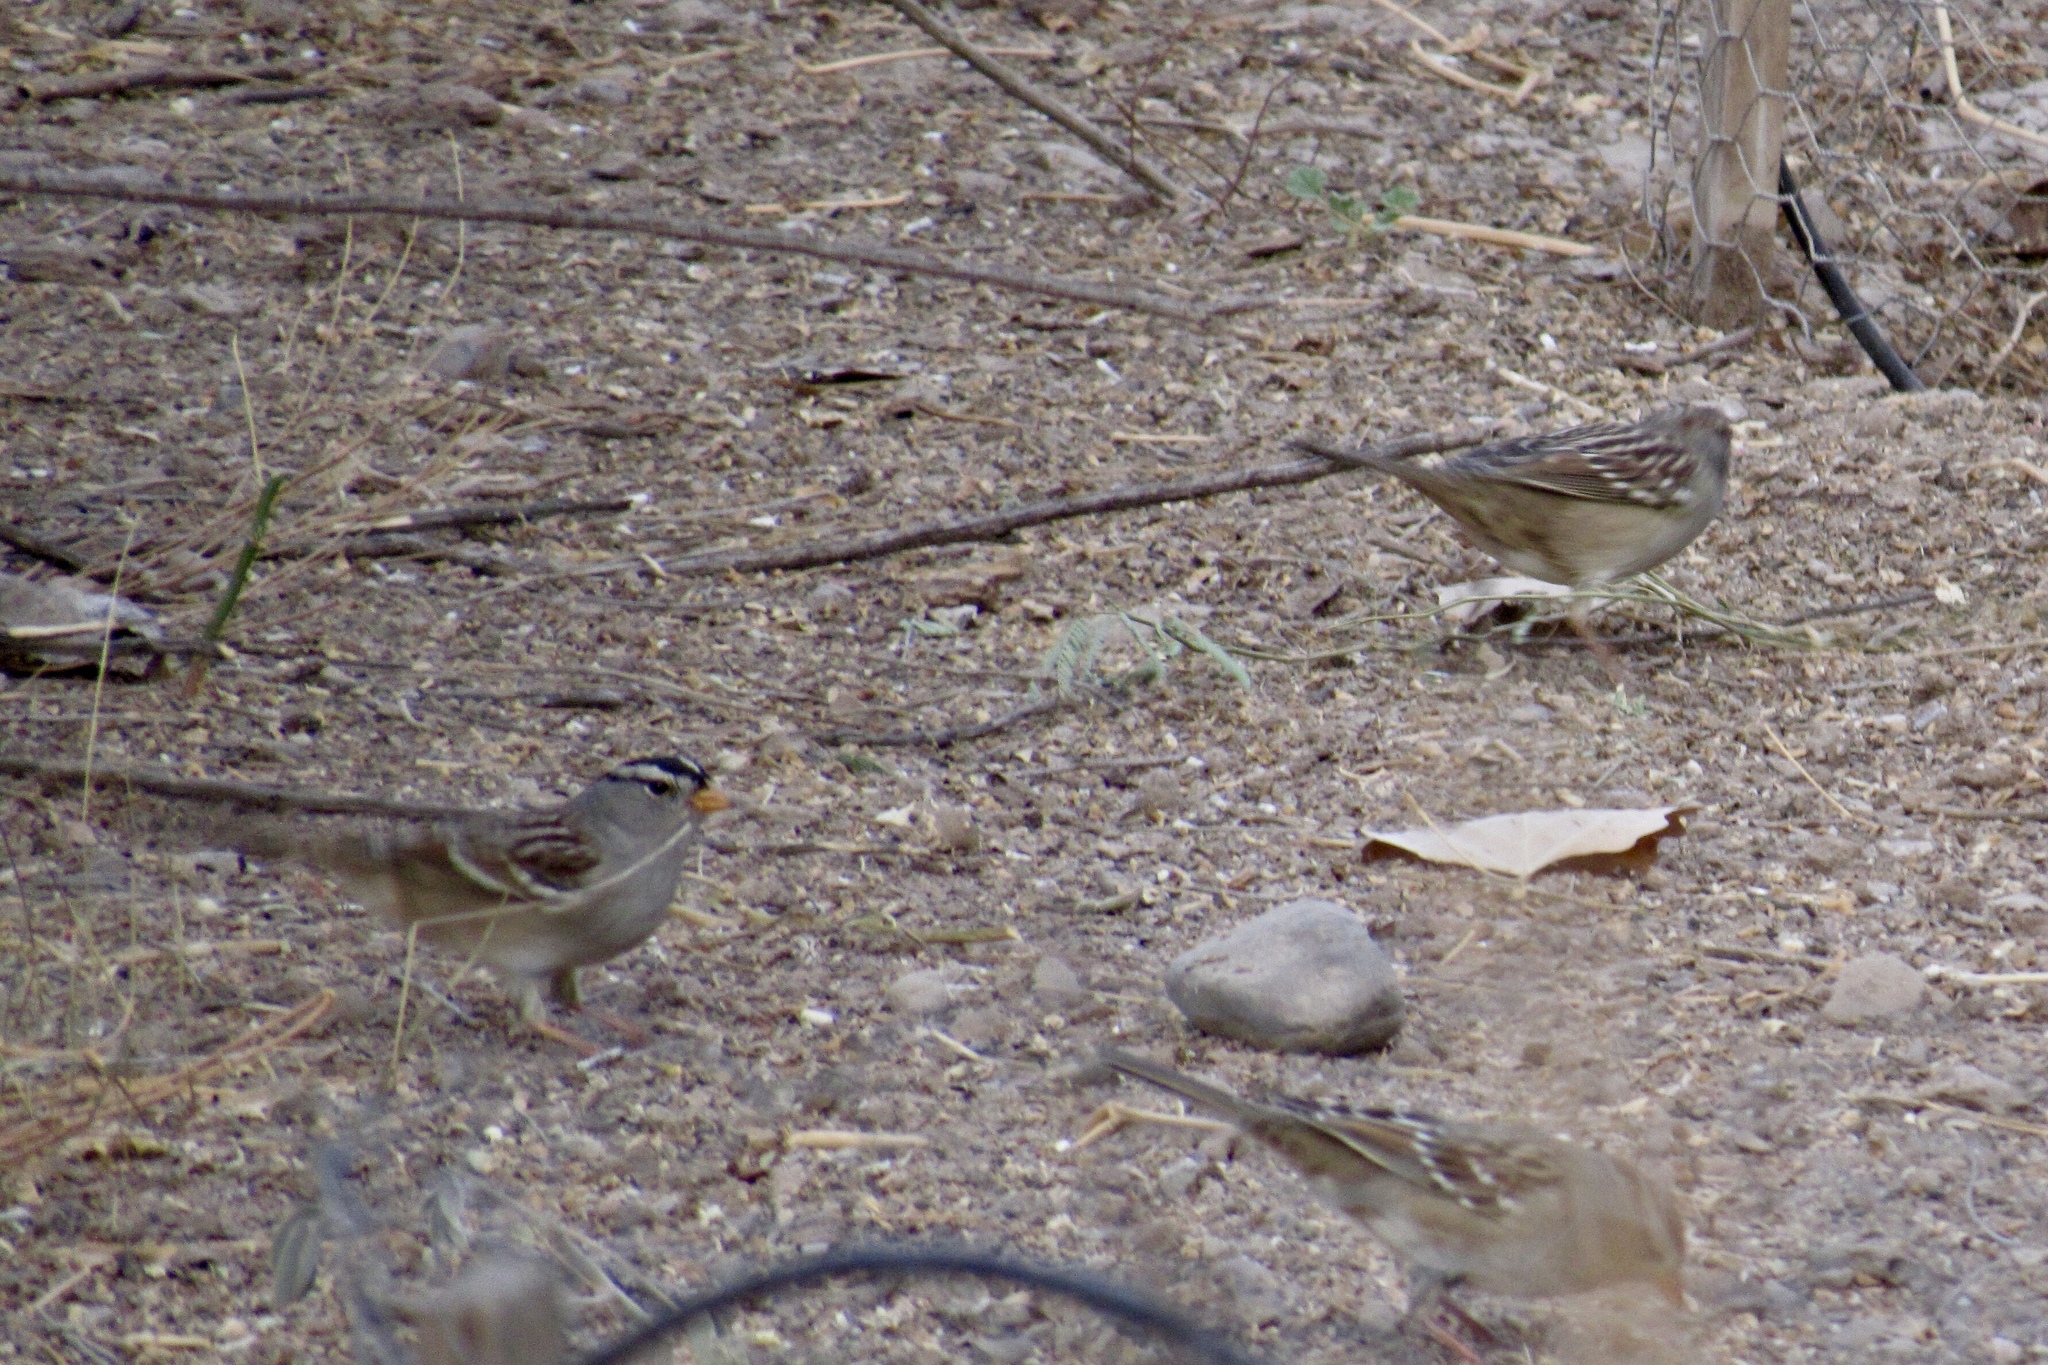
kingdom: Animalia
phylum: Chordata
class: Aves
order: Passeriformes
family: Passerellidae
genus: Zonotrichia
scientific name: Zonotrichia leucophrys
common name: White-crowned sparrow
